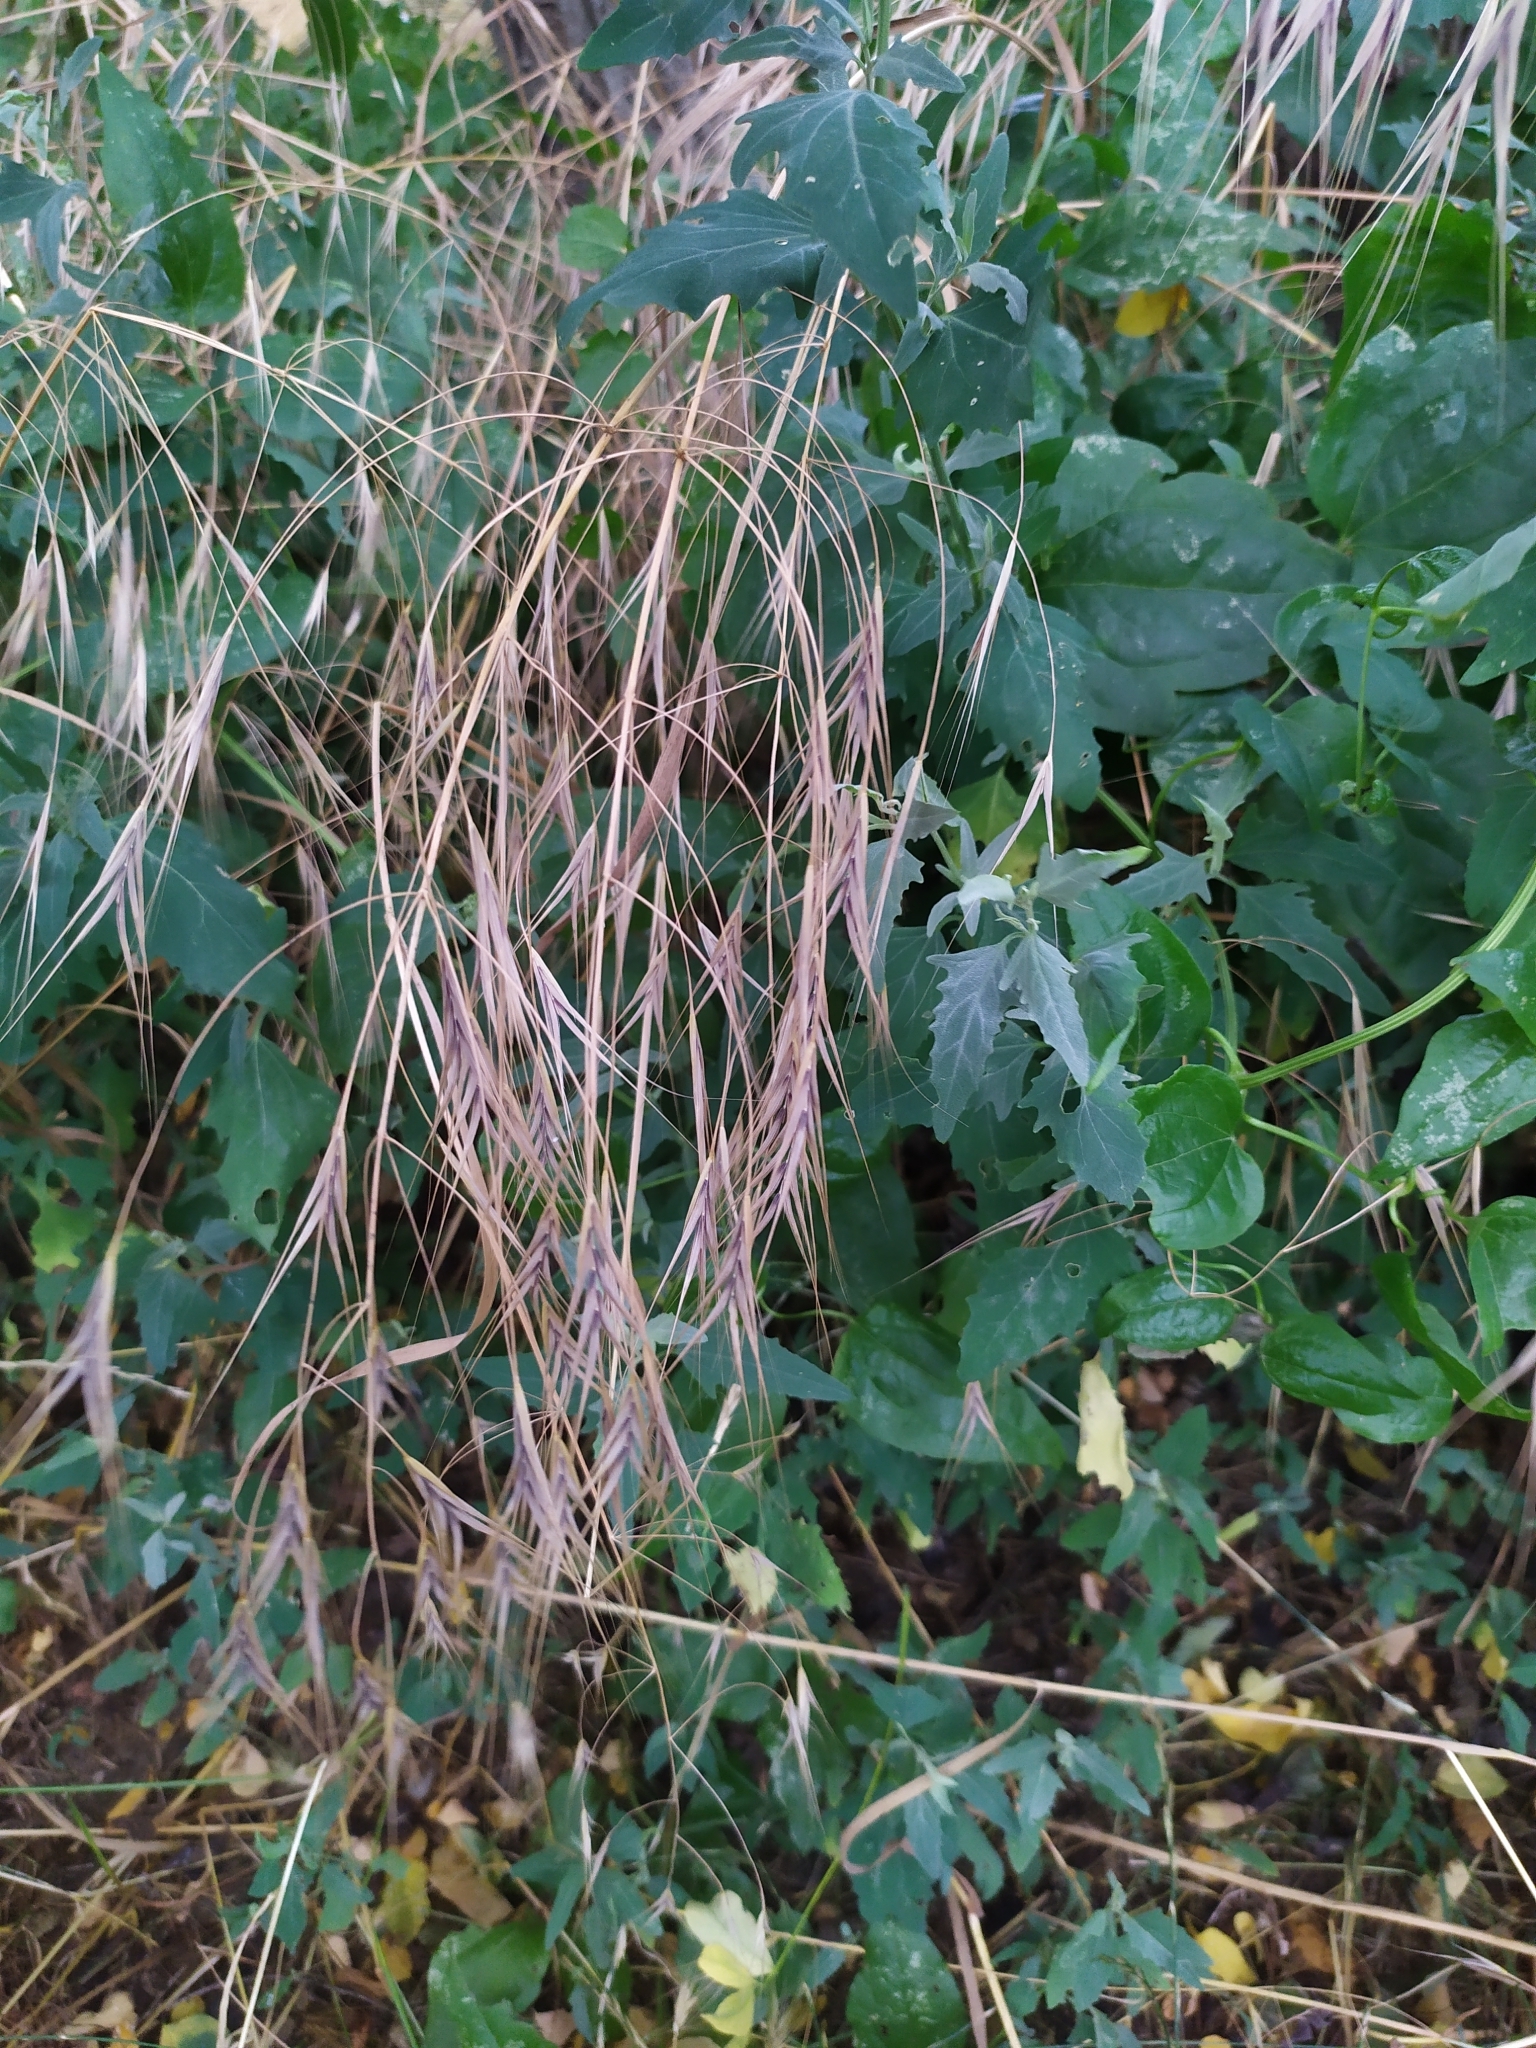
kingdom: Plantae
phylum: Tracheophyta
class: Liliopsida
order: Poales
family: Poaceae
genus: Bromus
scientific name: Bromus sterilis
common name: Poverty brome
